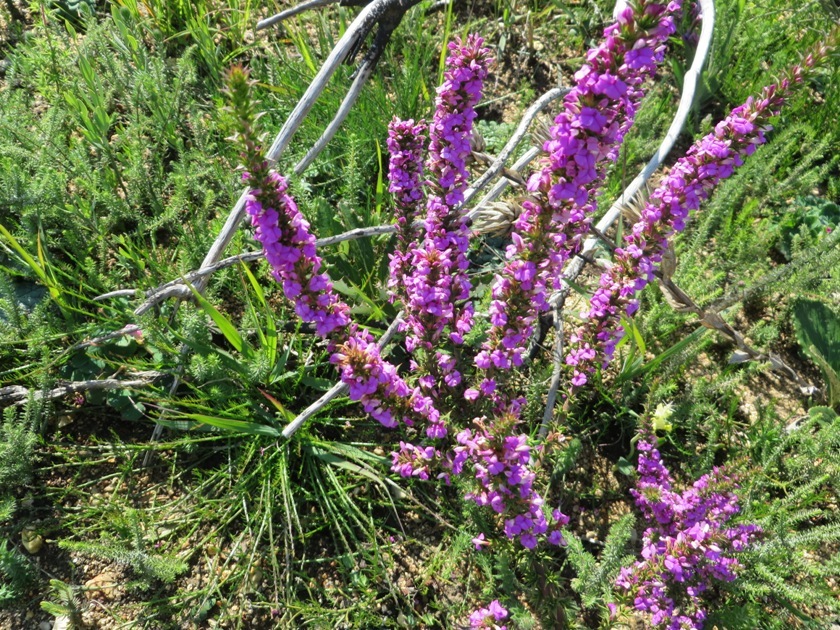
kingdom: Plantae
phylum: Tracheophyta
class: Magnoliopsida
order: Fabales
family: Polygalaceae
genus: Muraltia
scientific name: Muraltia heisteria
